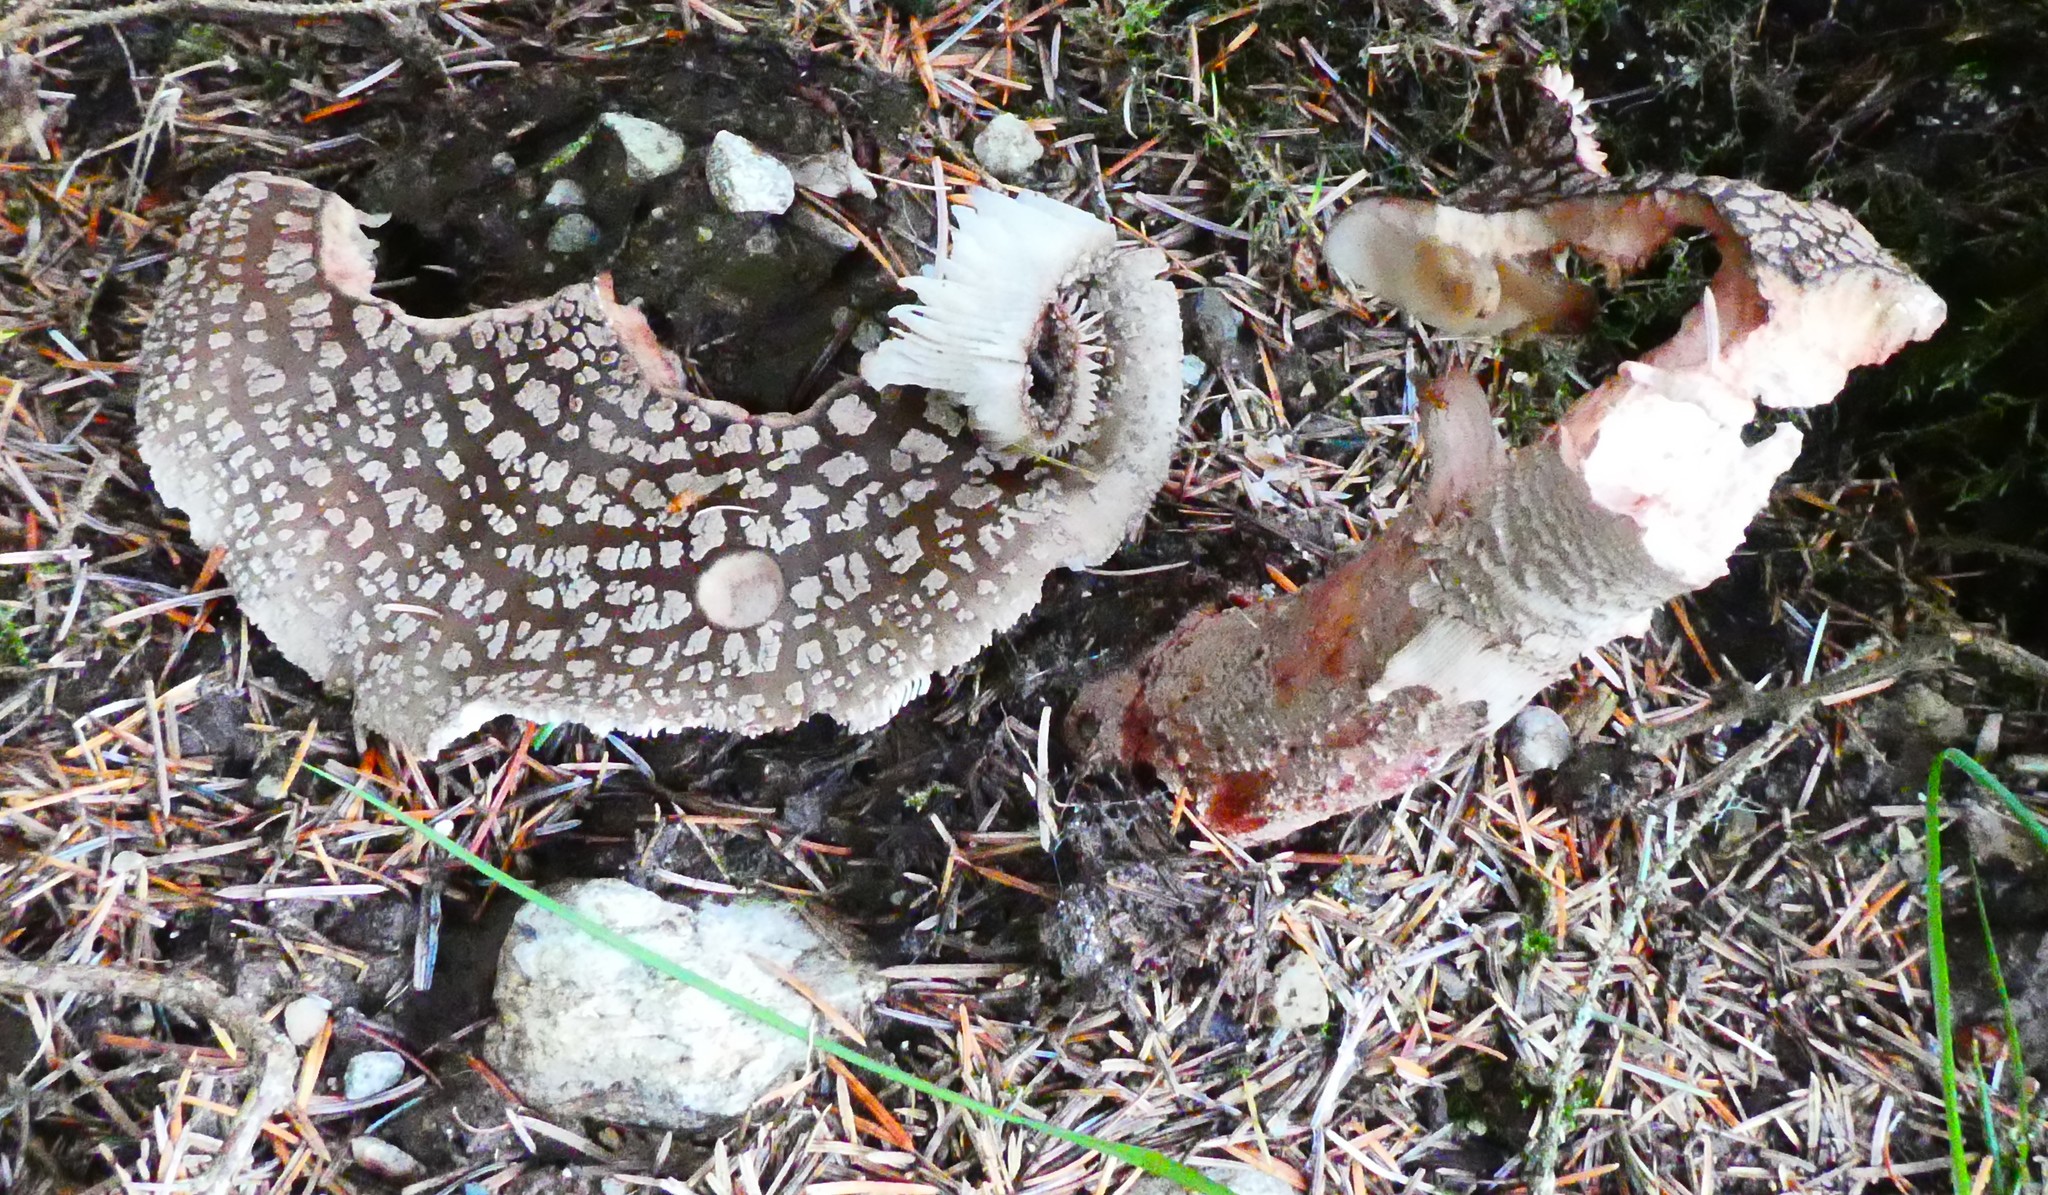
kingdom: Fungi
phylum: Basidiomycota
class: Agaricomycetes
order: Agaricales
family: Amanitaceae
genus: Amanita
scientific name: Amanita rubescens
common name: Blusher
